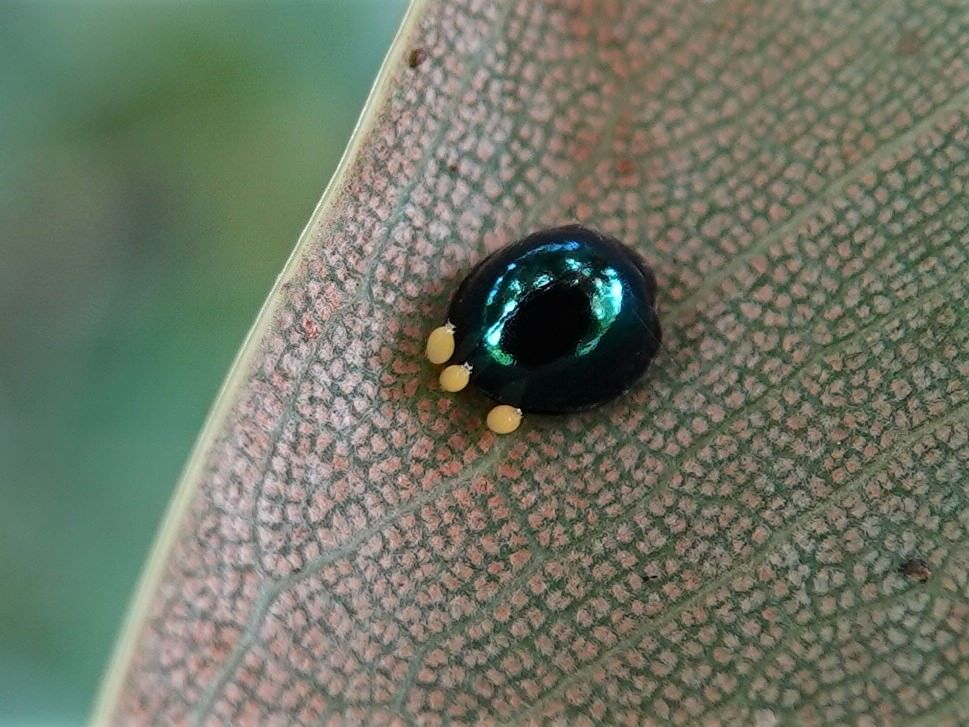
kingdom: Animalia
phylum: Arthropoda
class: Insecta
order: Coleoptera
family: Coccinellidae
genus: Halmus
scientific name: Halmus chalybeus
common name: Steel blue ladybird beetle
